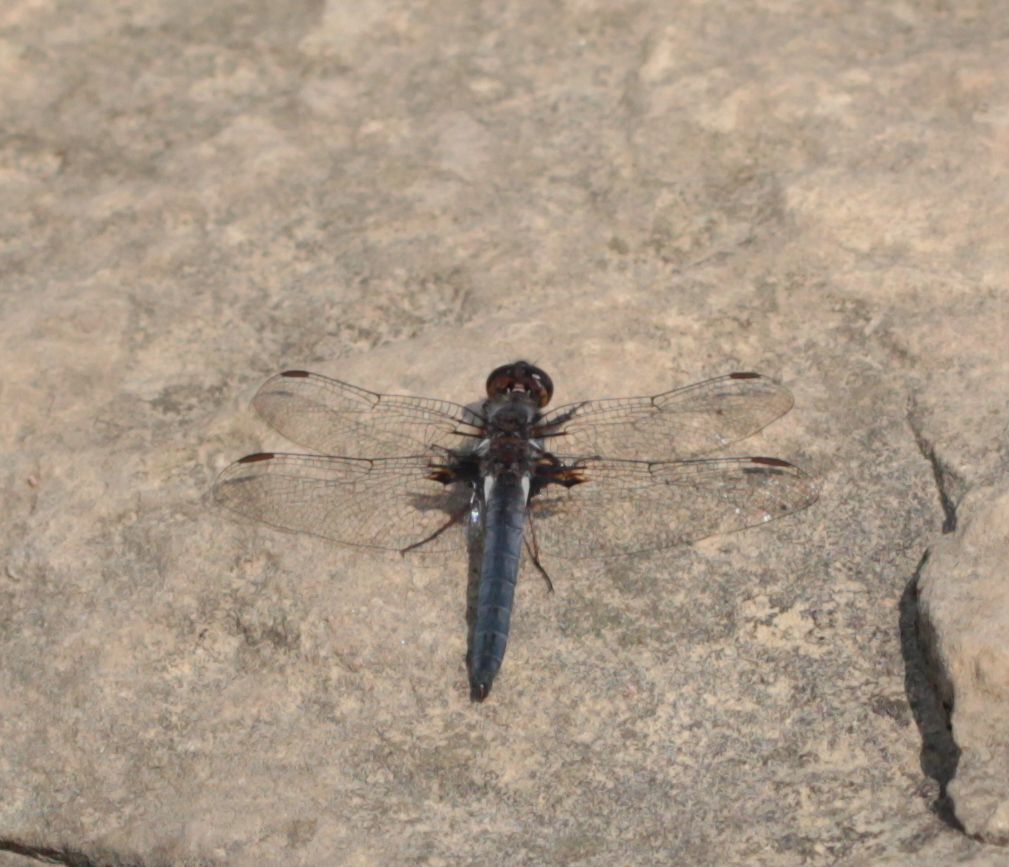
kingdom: Animalia
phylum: Arthropoda
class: Insecta
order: Odonata
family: Libellulidae
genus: Ladona
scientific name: Ladona deplanata
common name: Blue corporal
